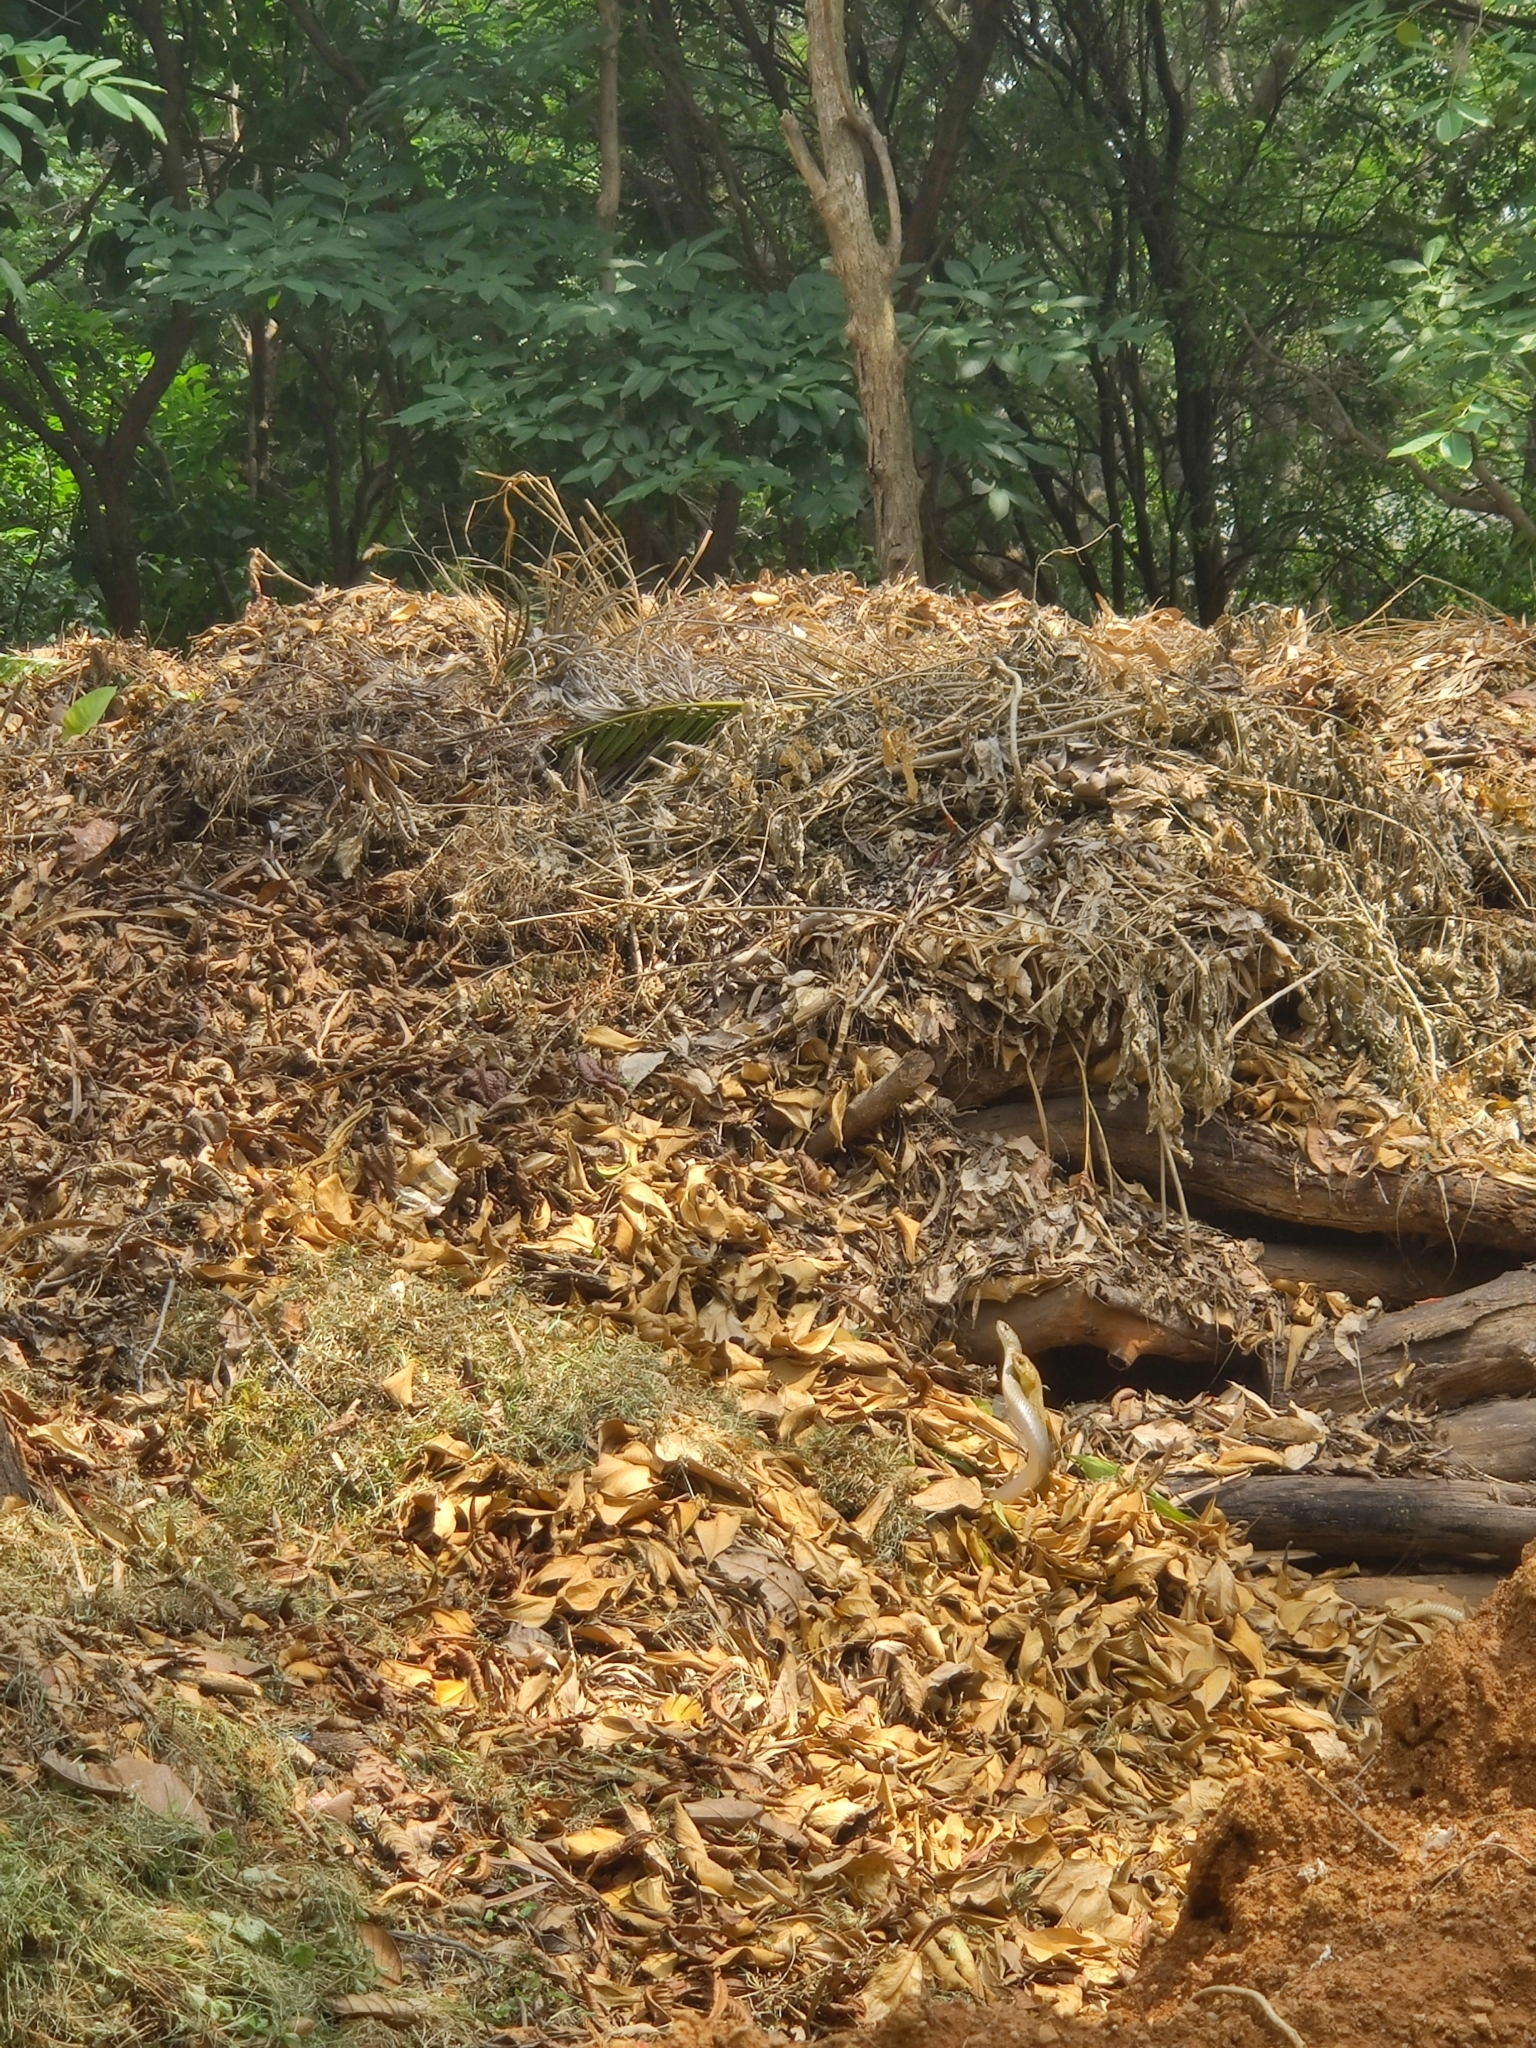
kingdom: Animalia
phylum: Chordata
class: Squamata
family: Colubridae
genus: Ptyas
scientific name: Ptyas mucosa
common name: Oriental ratsnake
